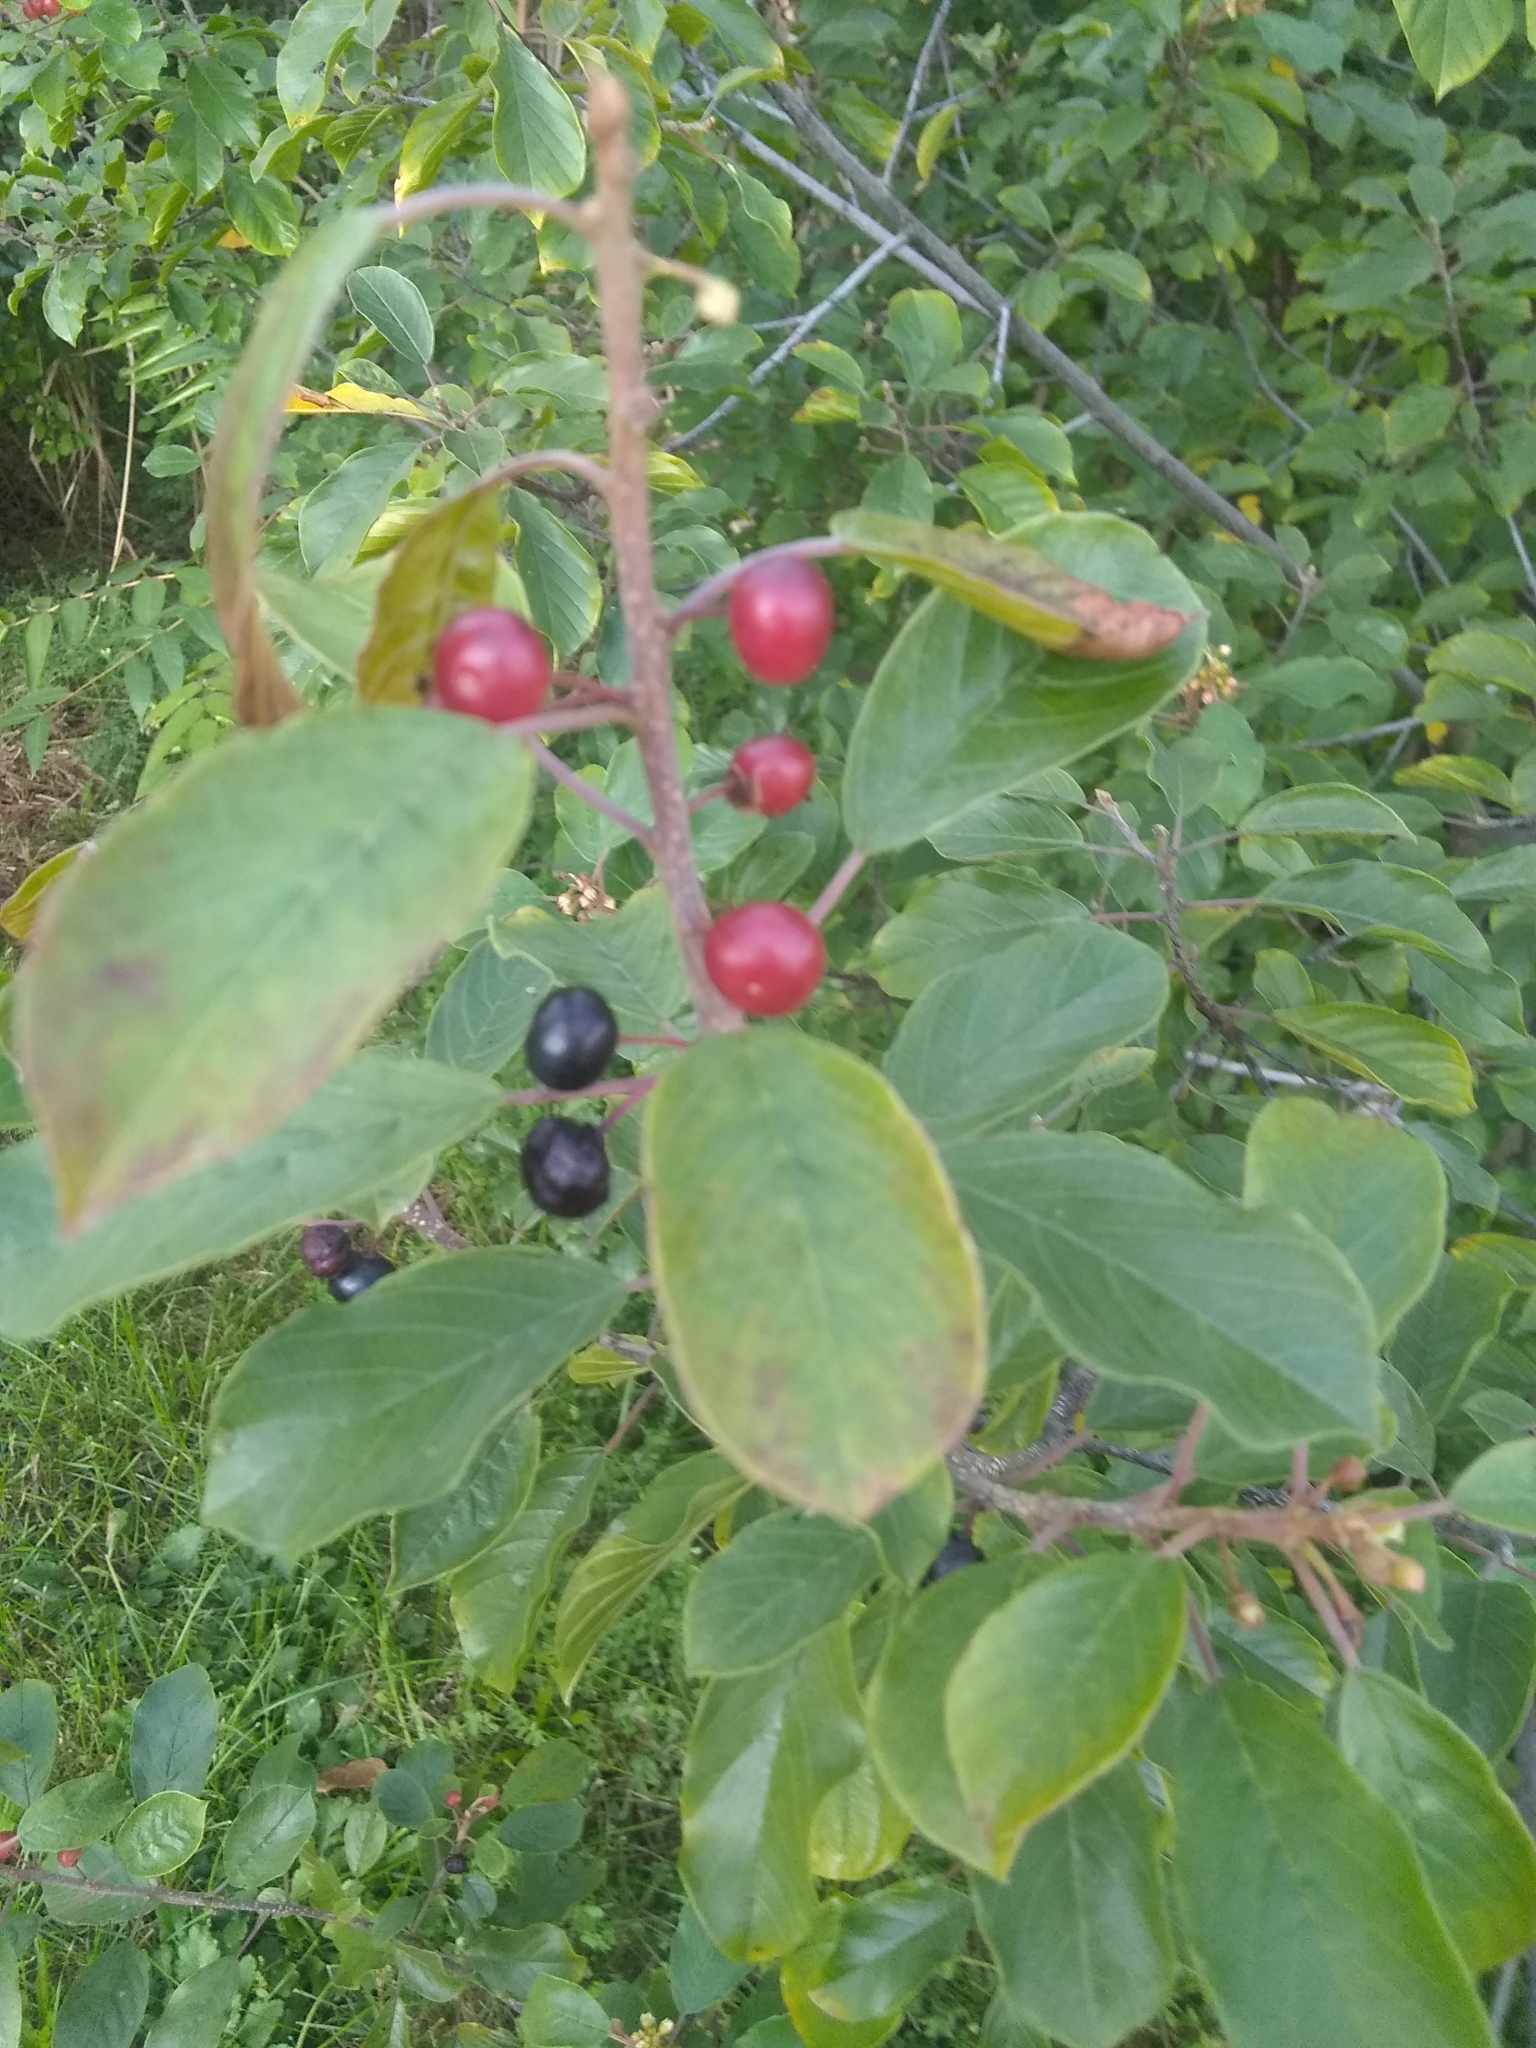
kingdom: Plantae
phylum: Tracheophyta
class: Magnoliopsida
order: Rosales
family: Rhamnaceae
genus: Frangula
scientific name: Frangula alnus
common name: Alder buckthorn
